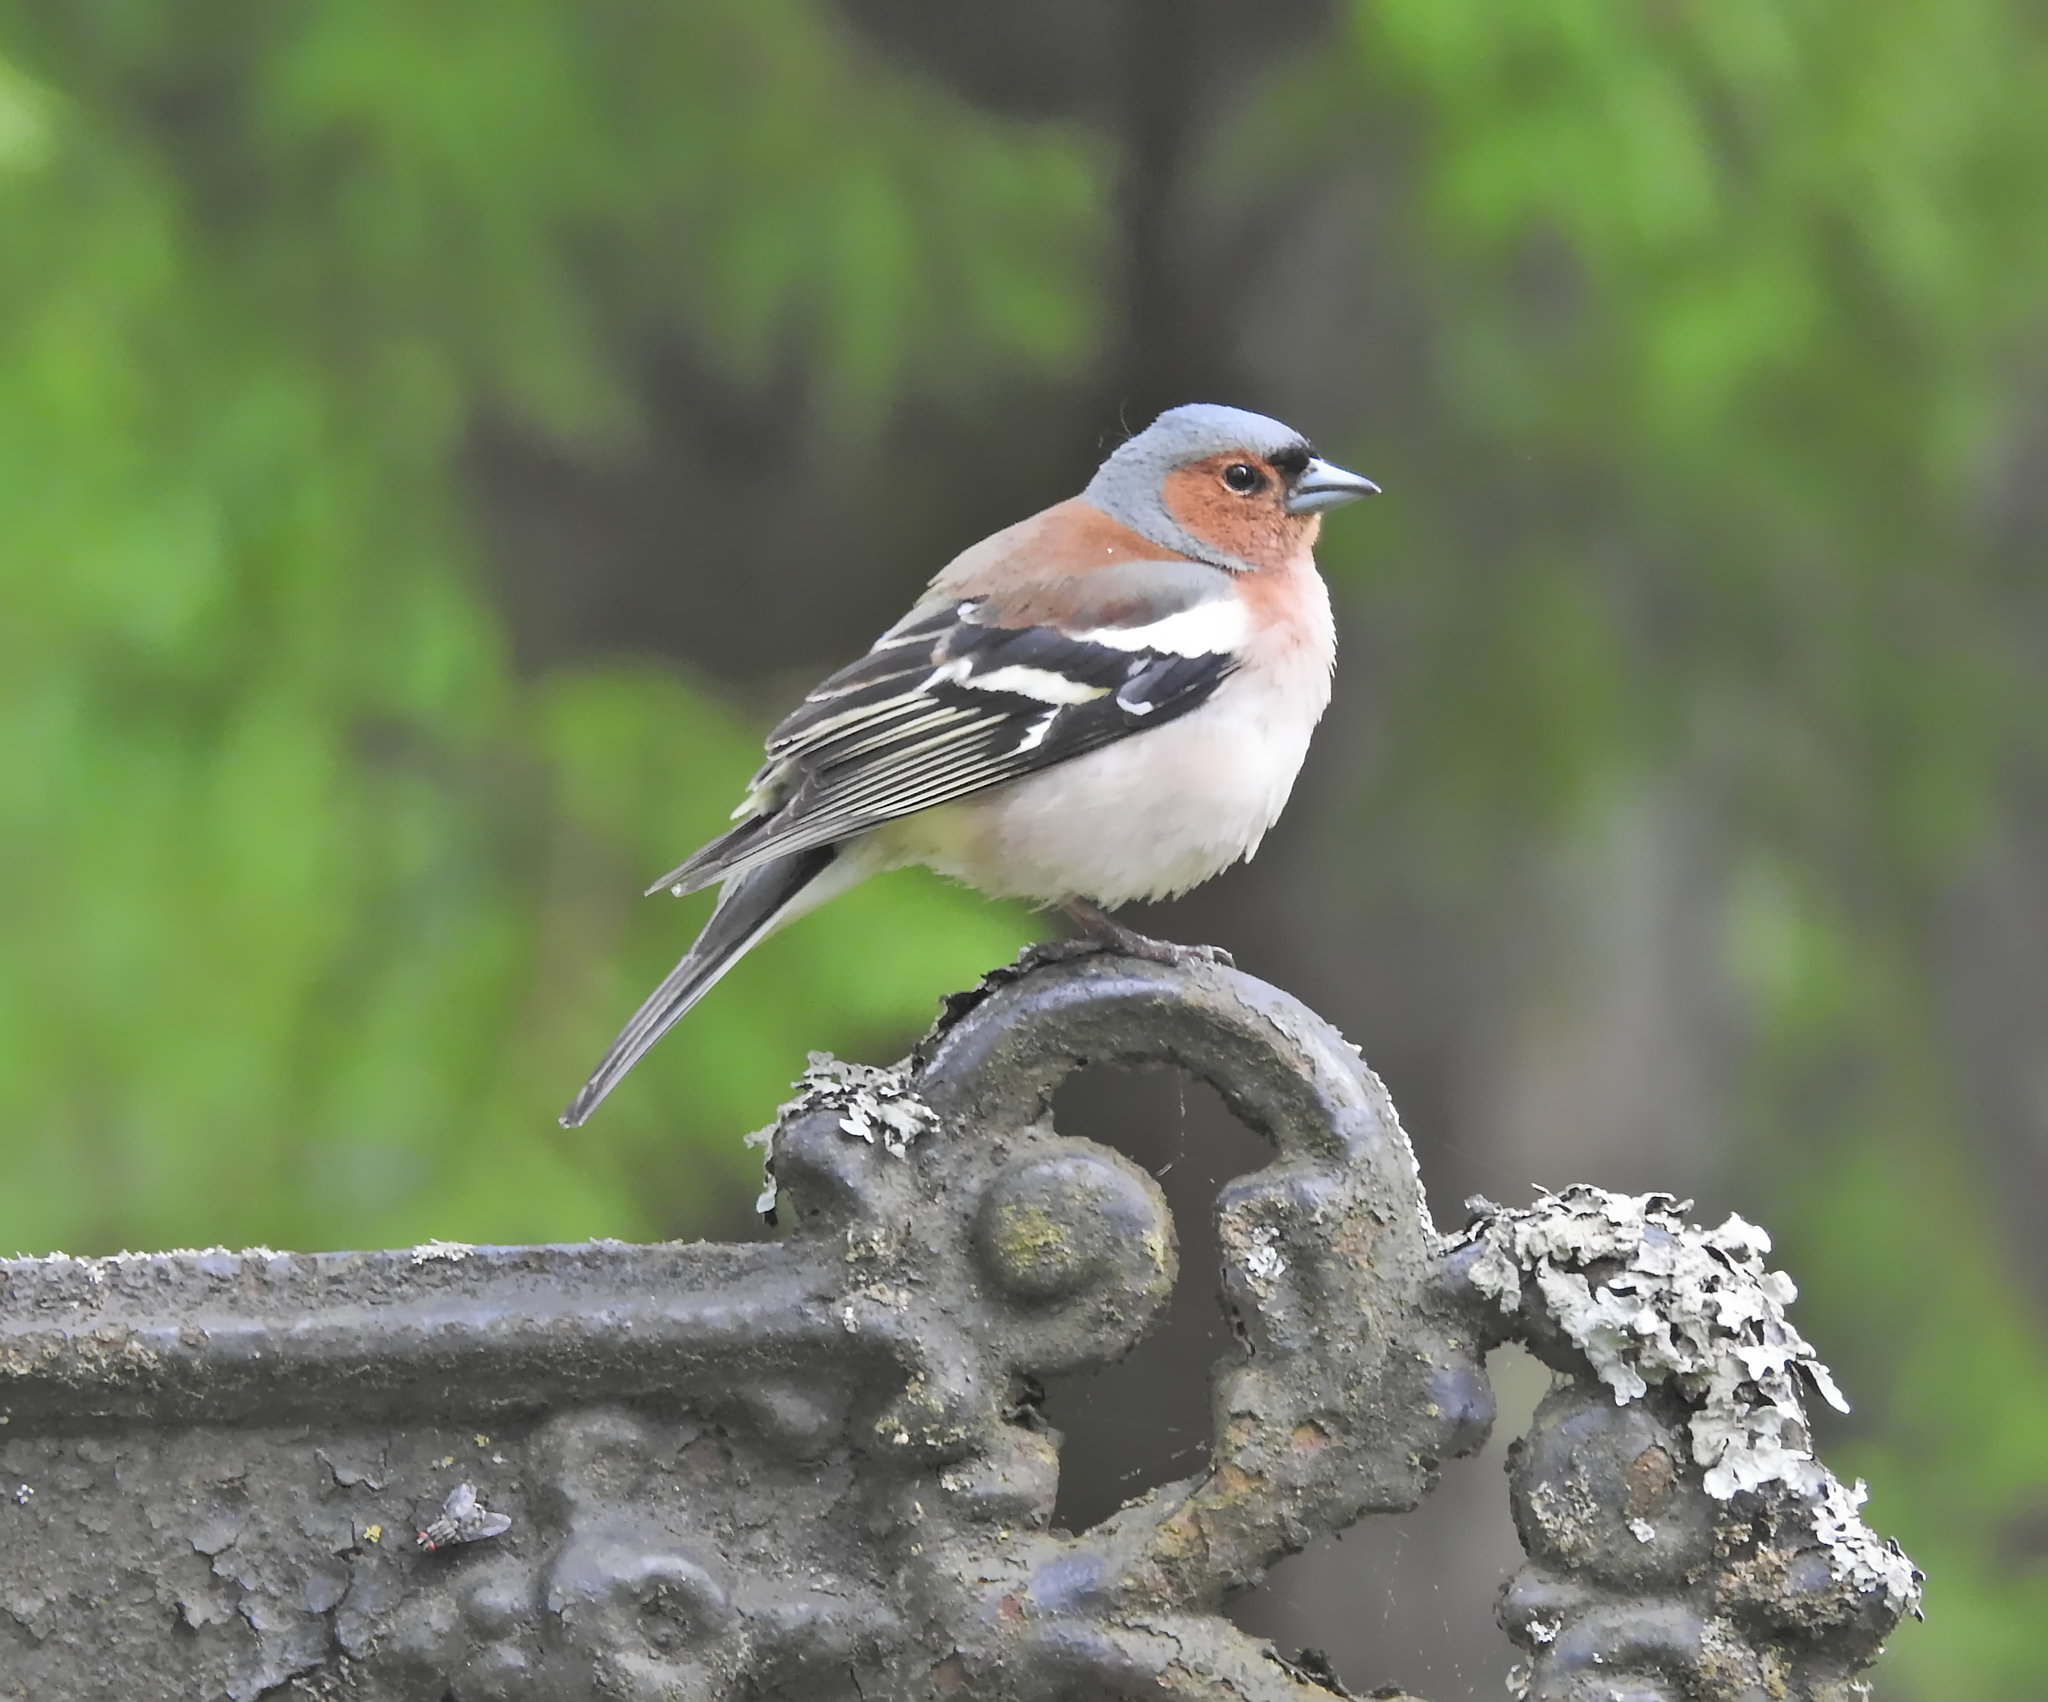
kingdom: Animalia
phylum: Chordata
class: Aves
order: Passeriformes
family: Fringillidae
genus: Fringilla
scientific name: Fringilla coelebs
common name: Common chaffinch
